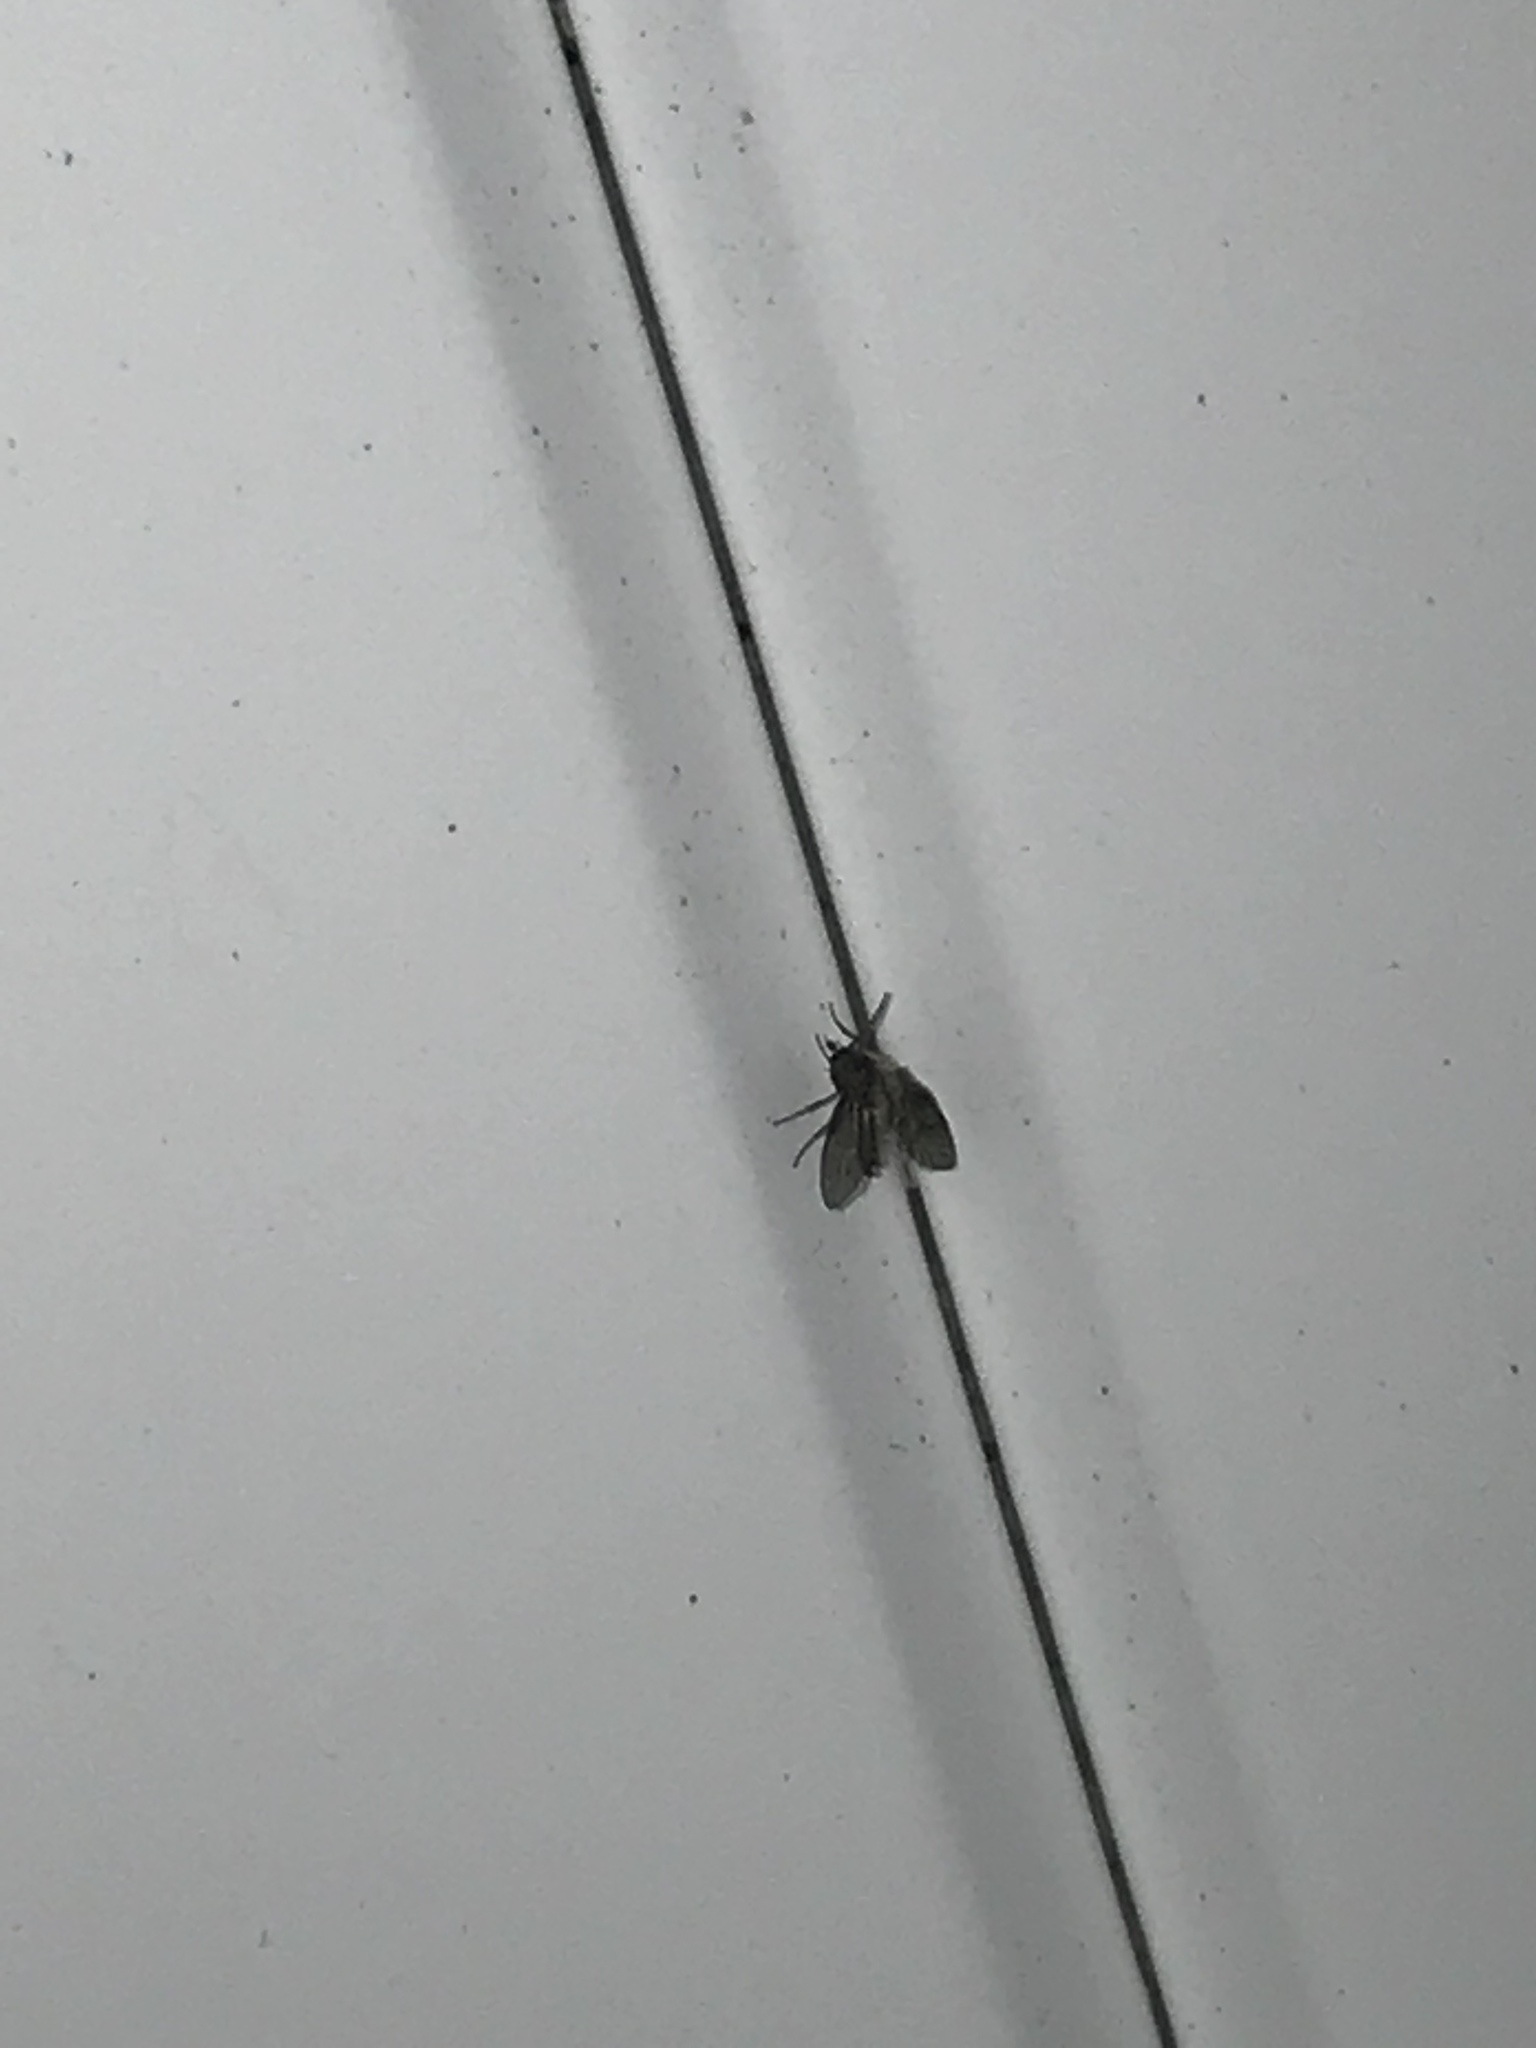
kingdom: Animalia
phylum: Arthropoda
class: Insecta
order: Diptera
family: Psychodidae
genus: Clogmia
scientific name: Clogmia albipunctatus
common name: White-spotted moth fly
